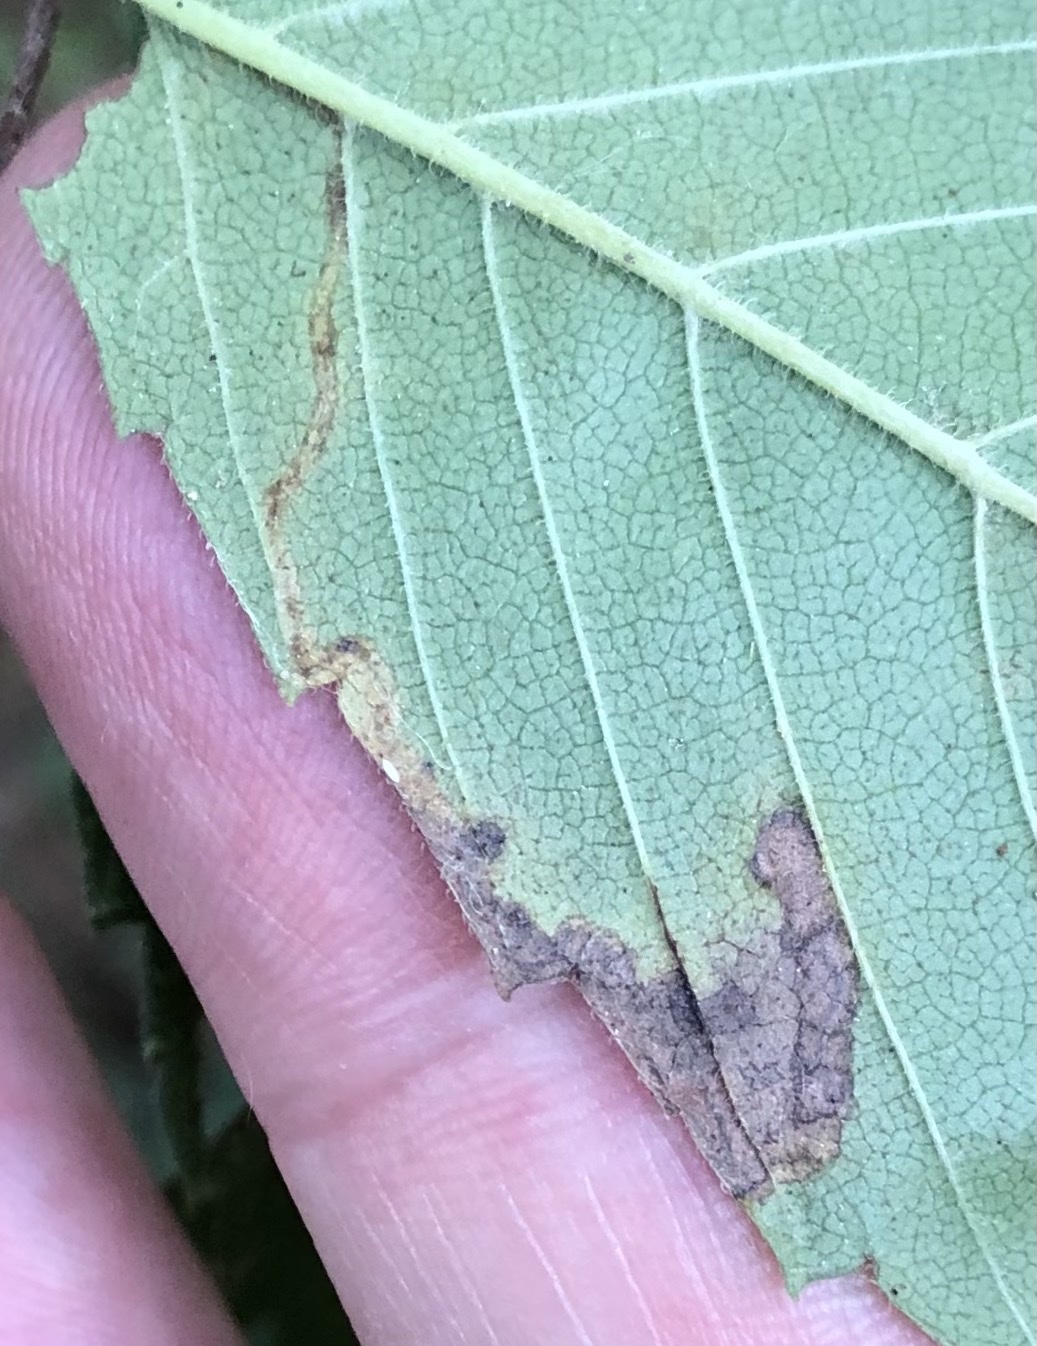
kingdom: Animalia
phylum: Arthropoda
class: Insecta
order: Lepidoptera
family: Nepticulidae
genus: Stigmella
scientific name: Stigmella apicialbella
